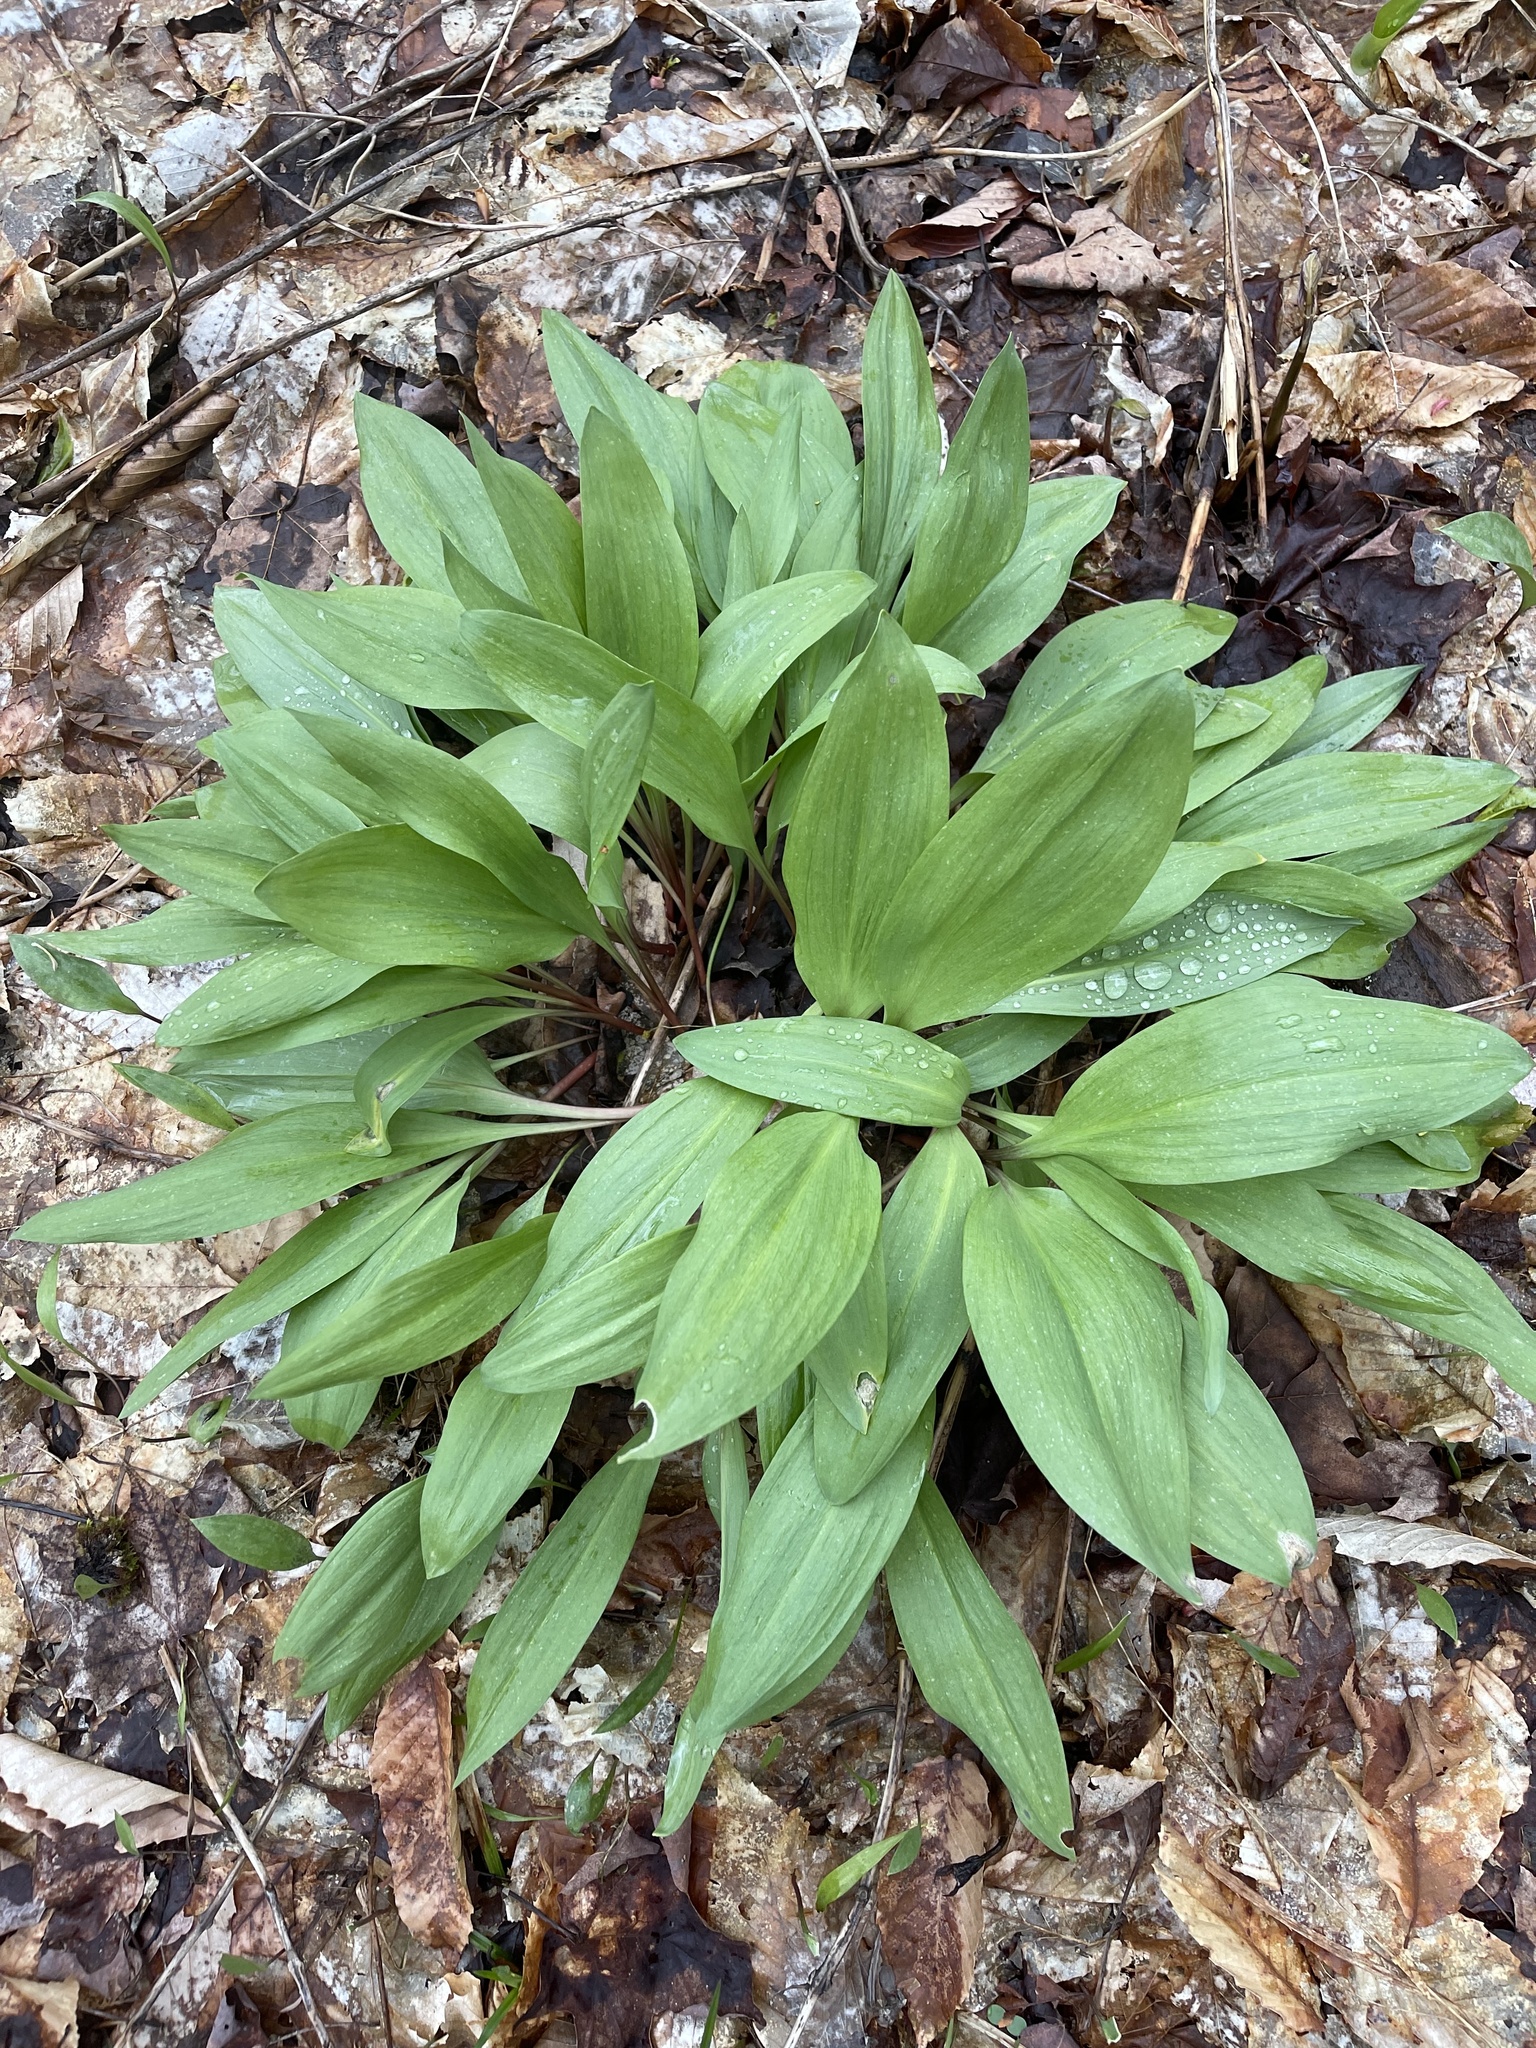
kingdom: Plantae
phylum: Tracheophyta
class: Liliopsida
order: Asparagales
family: Amaryllidaceae
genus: Allium
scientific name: Allium tricoccum
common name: Ramp
